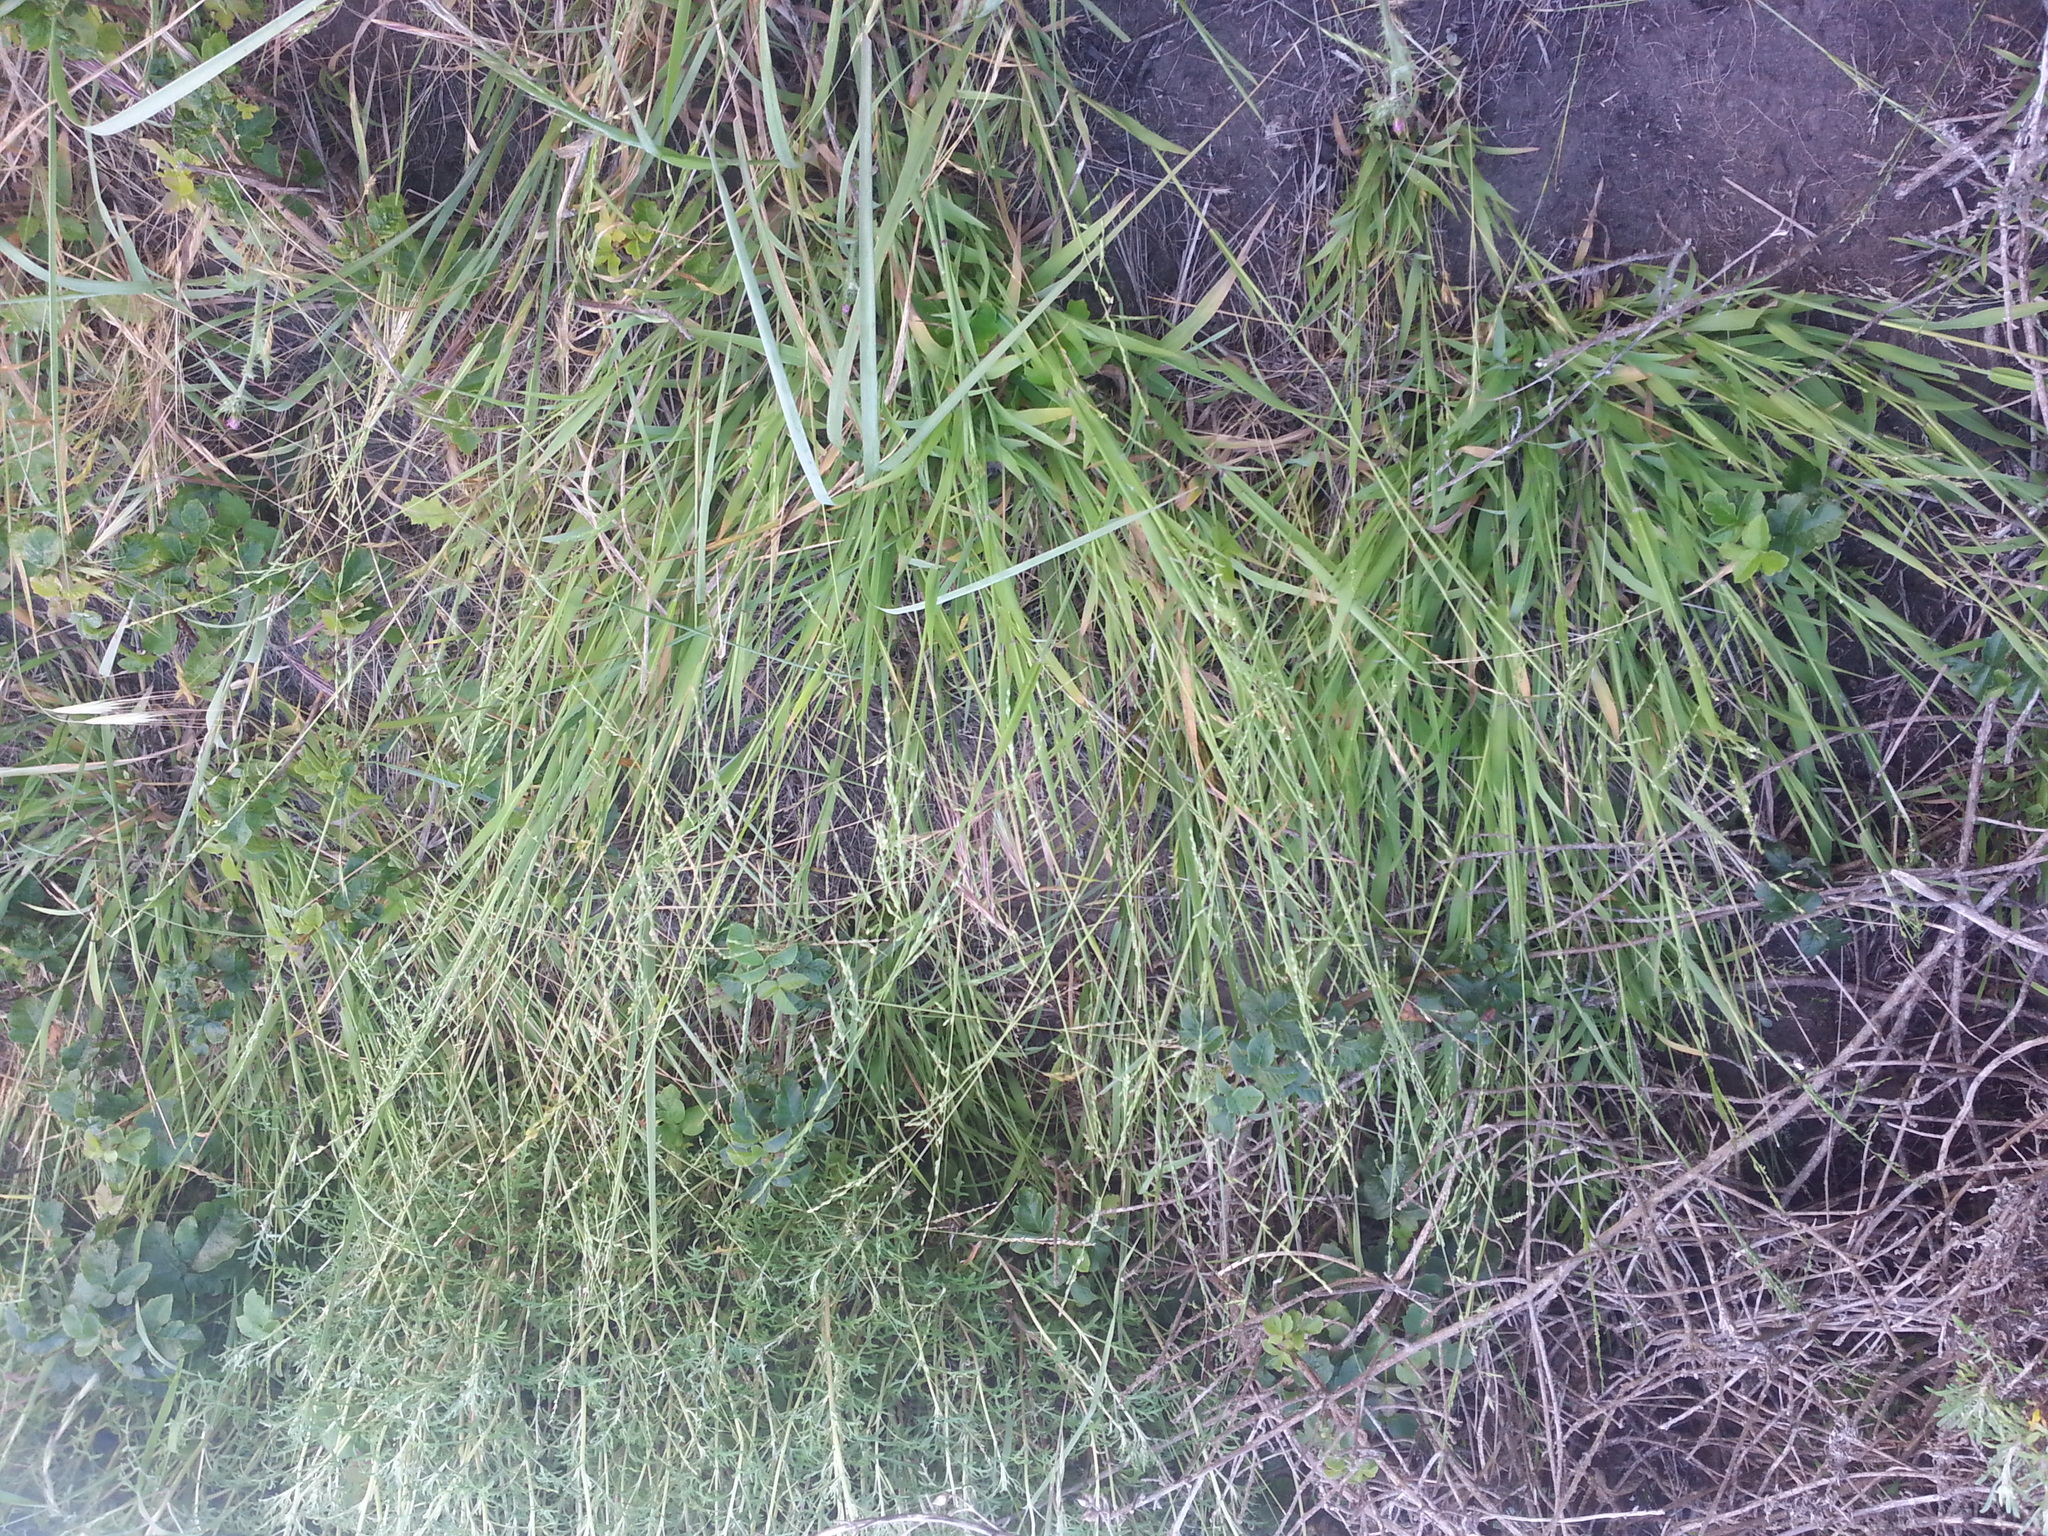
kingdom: Plantae
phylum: Tracheophyta
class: Liliopsida
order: Poales
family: Poaceae
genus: Ehrharta
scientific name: Ehrharta erecta
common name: Panic veldtgrass
